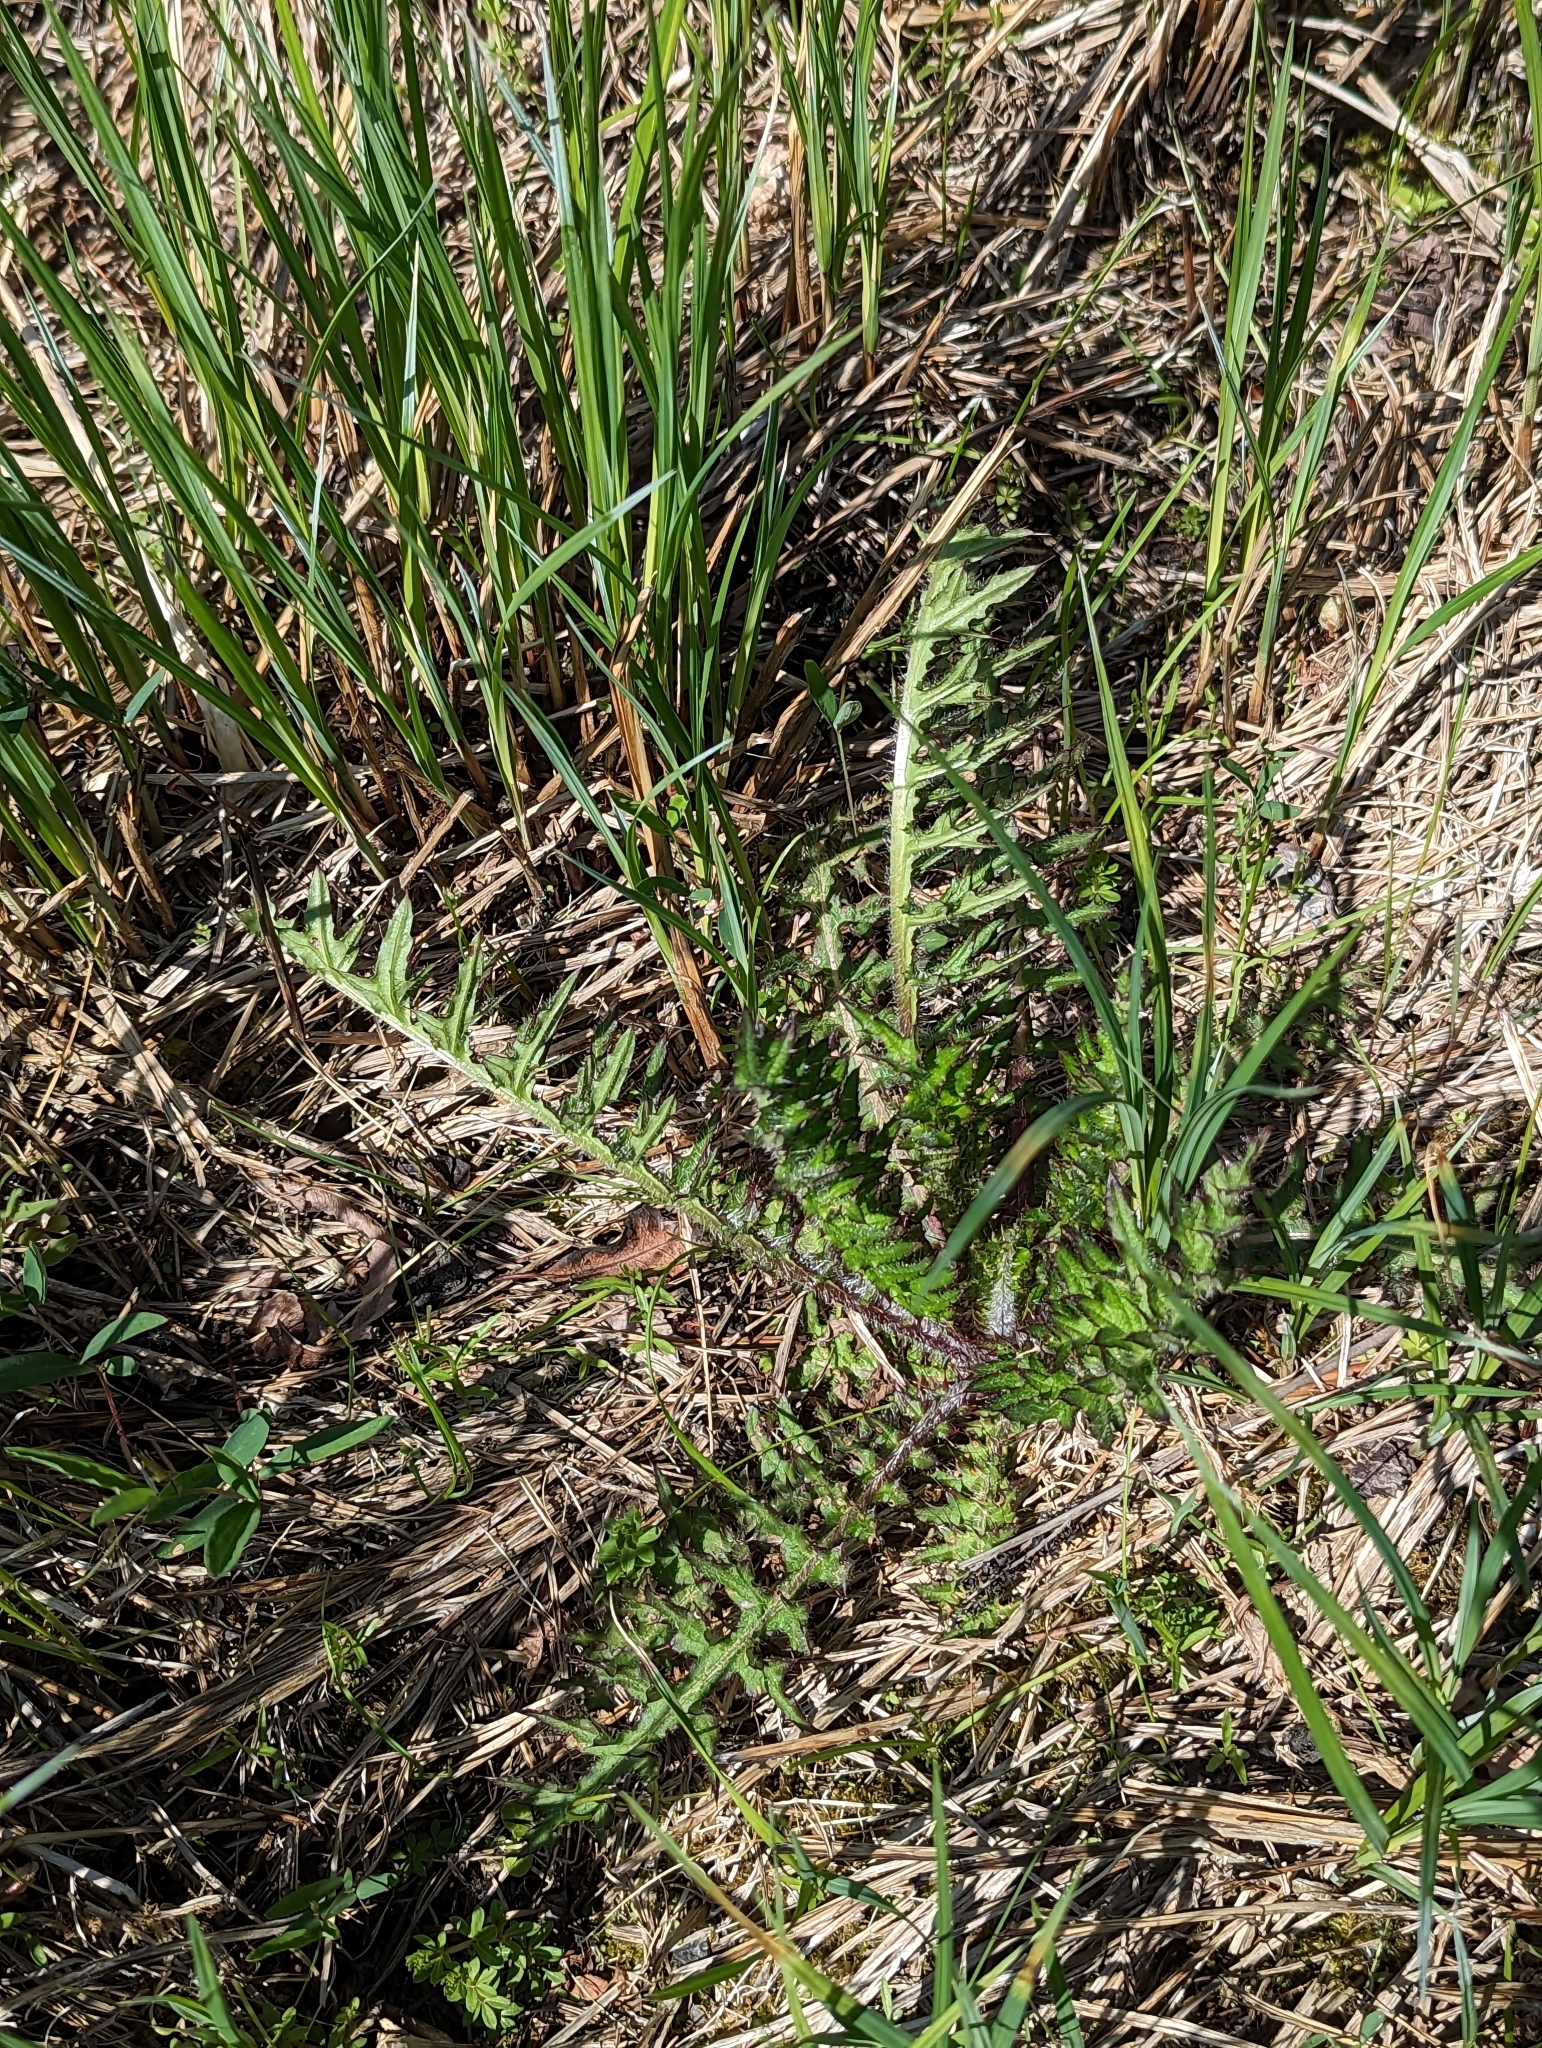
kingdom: Plantae
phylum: Tracheophyta
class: Magnoliopsida
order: Asterales
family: Asteraceae
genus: Cirsium
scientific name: Cirsium muticum
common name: Dunce-nettle
